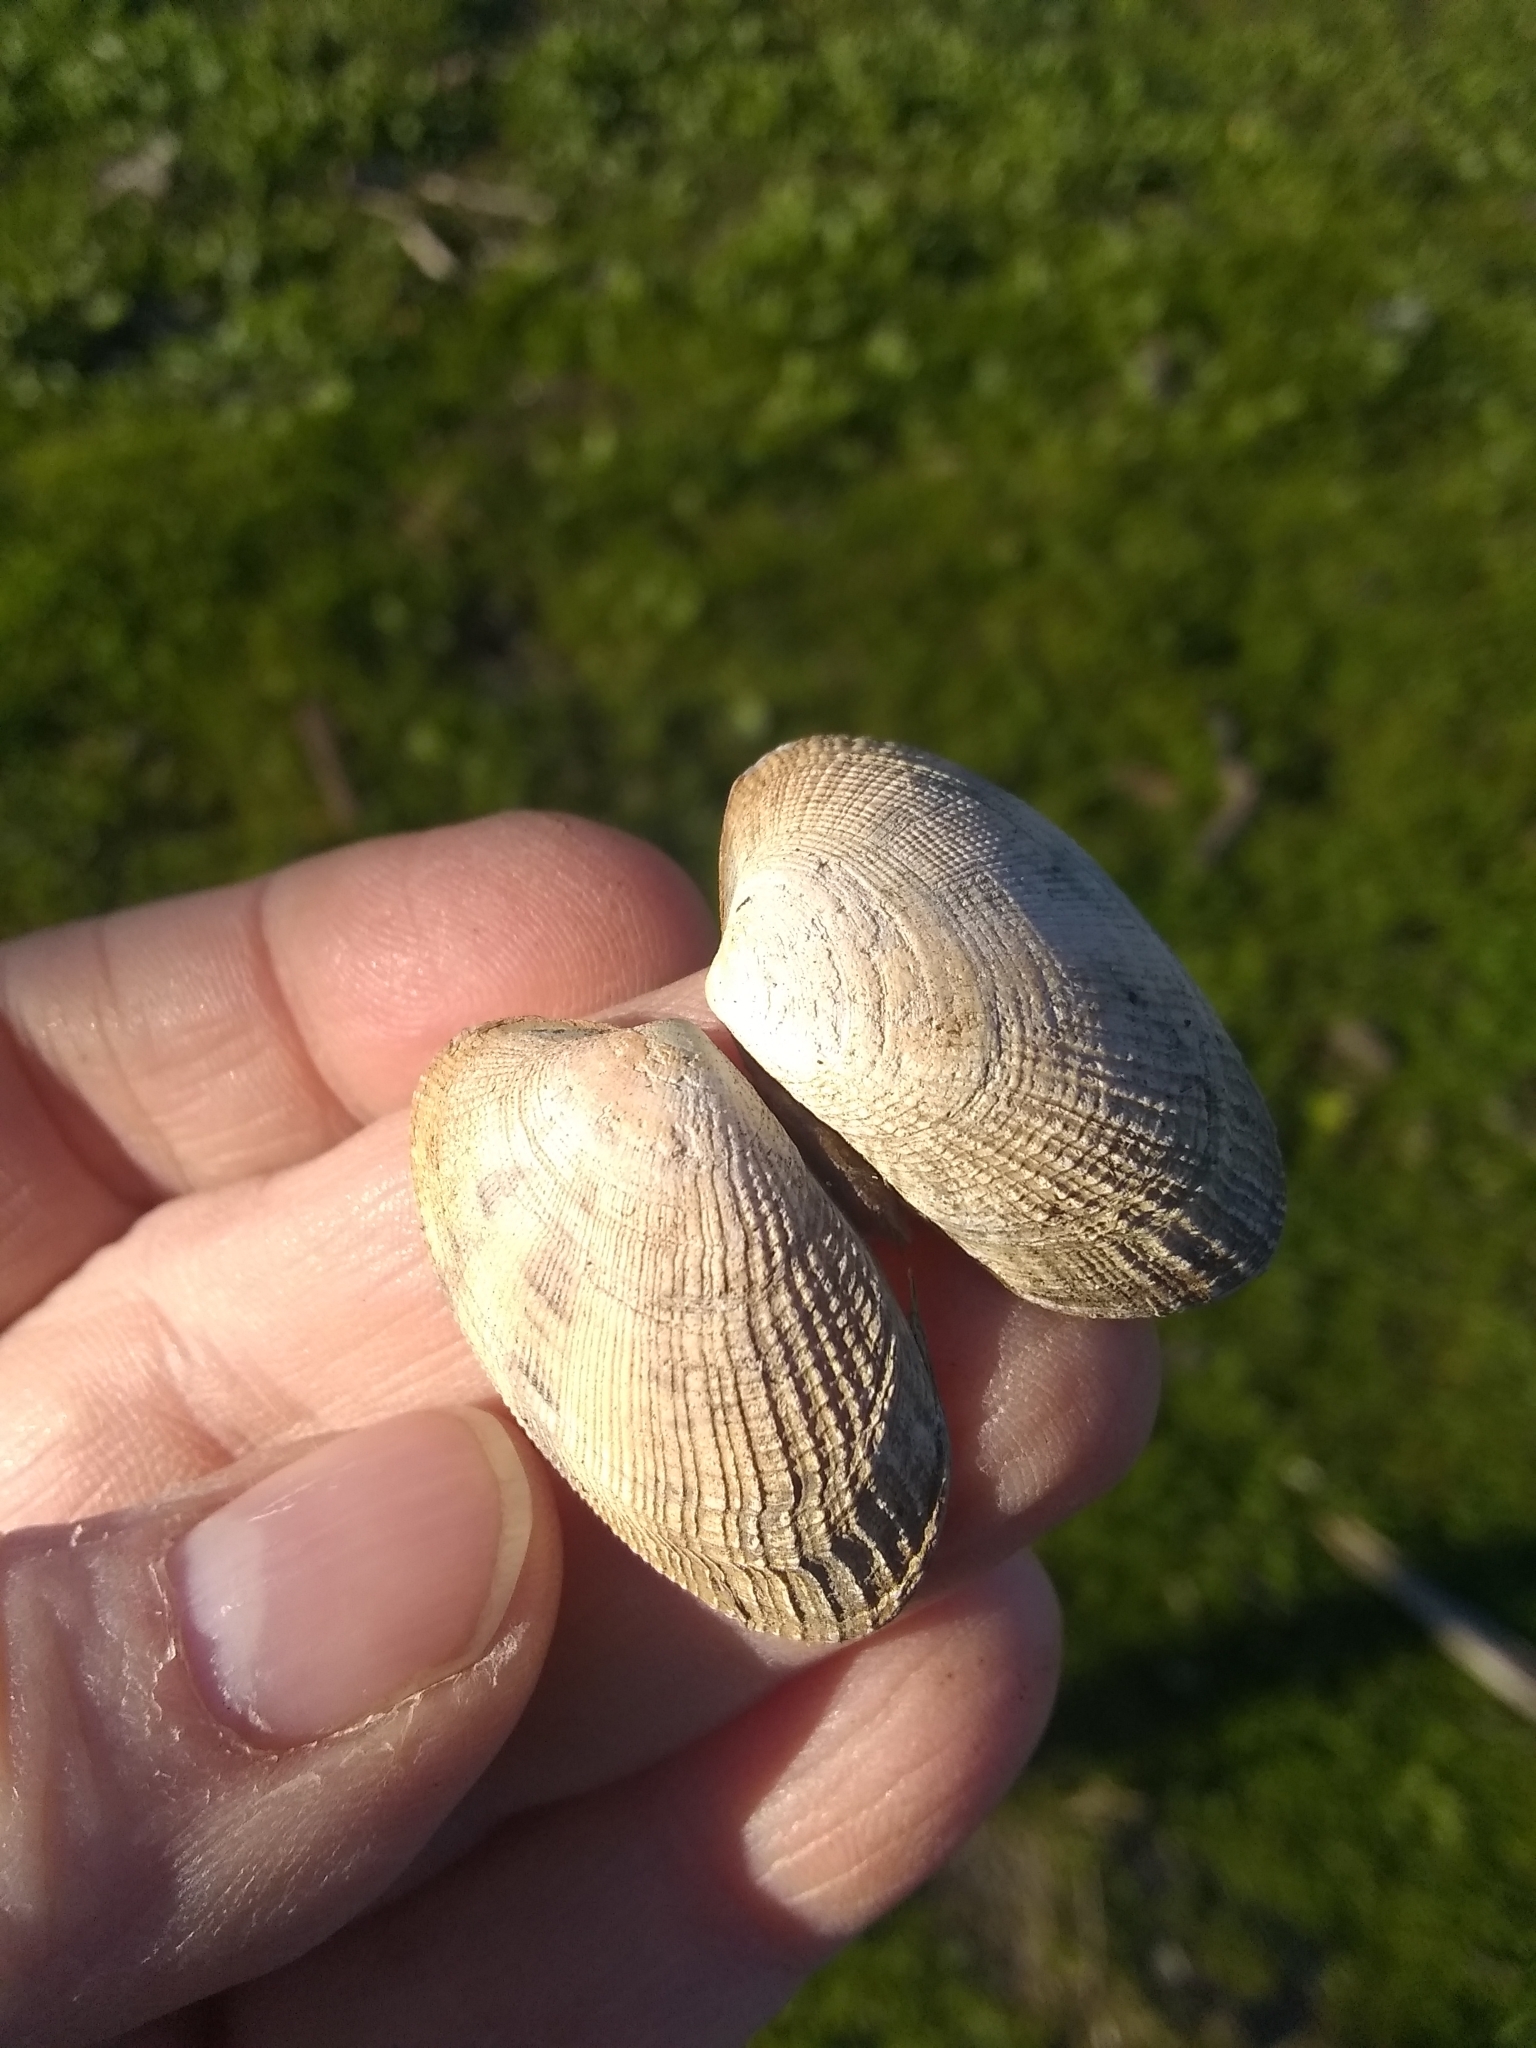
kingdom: Animalia
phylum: Mollusca
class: Bivalvia
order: Venerida
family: Veneridae
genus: Ruditapes
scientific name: Ruditapes philippinarum
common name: Manila clam
